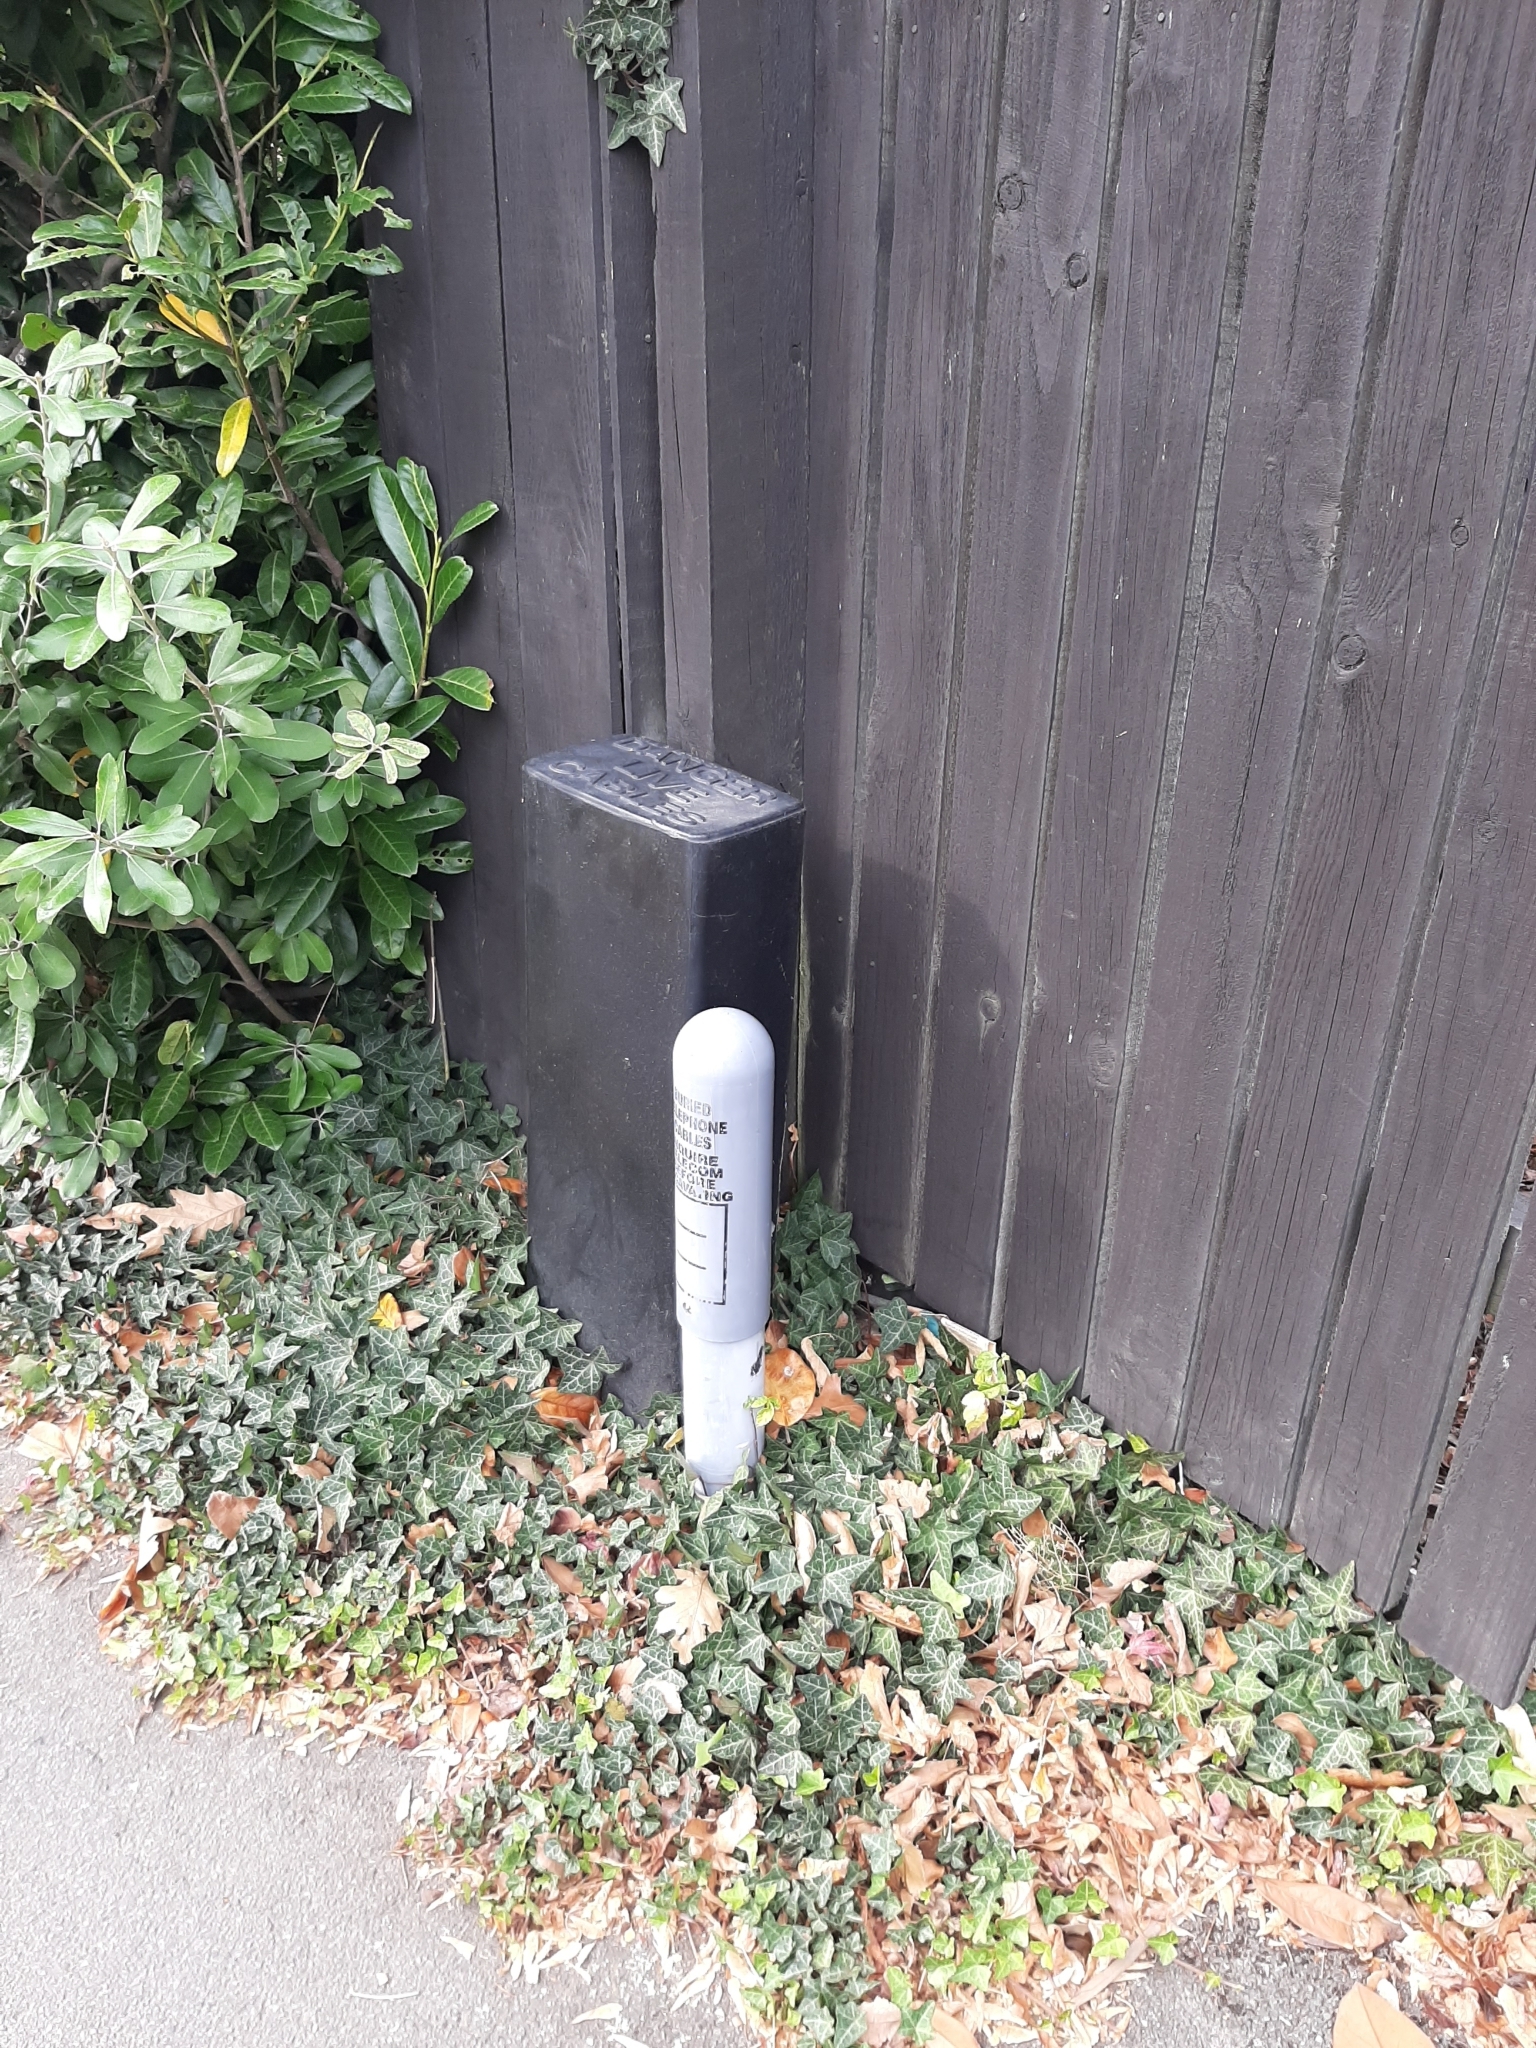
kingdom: Plantae
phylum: Tracheophyta
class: Magnoliopsida
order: Apiales
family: Araliaceae
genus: Hedera
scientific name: Hedera helix
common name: Ivy
